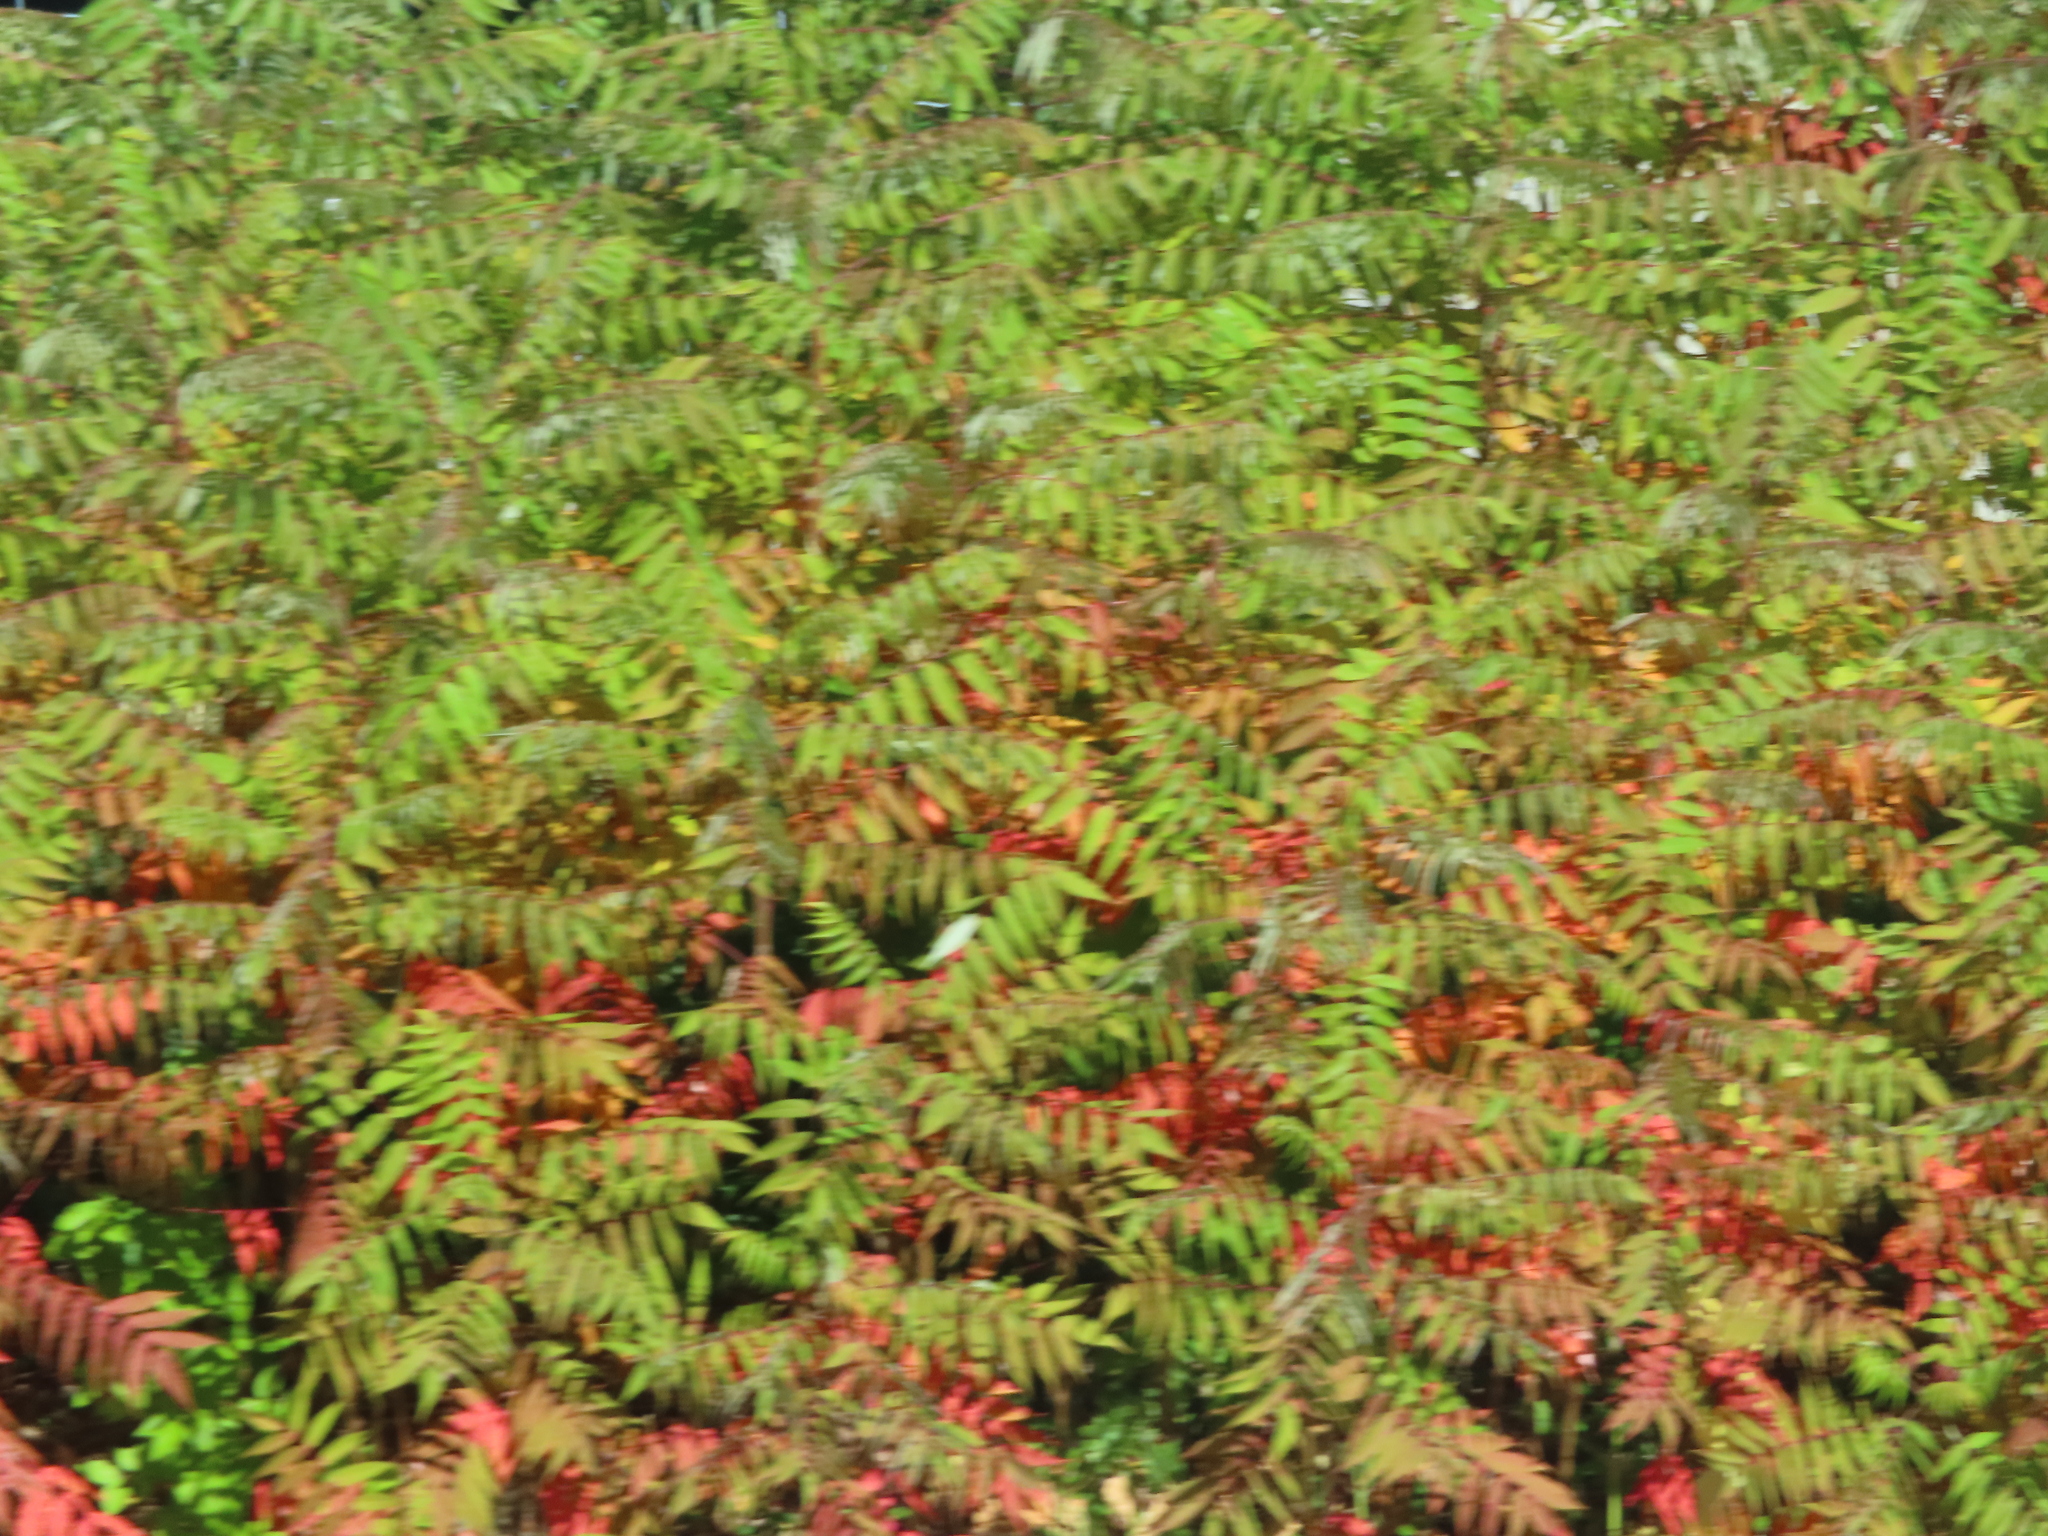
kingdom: Plantae
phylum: Tracheophyta
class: Magnoliopsida
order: Sapindales
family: Anacardiaceae
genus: Rhus
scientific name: Rhus
